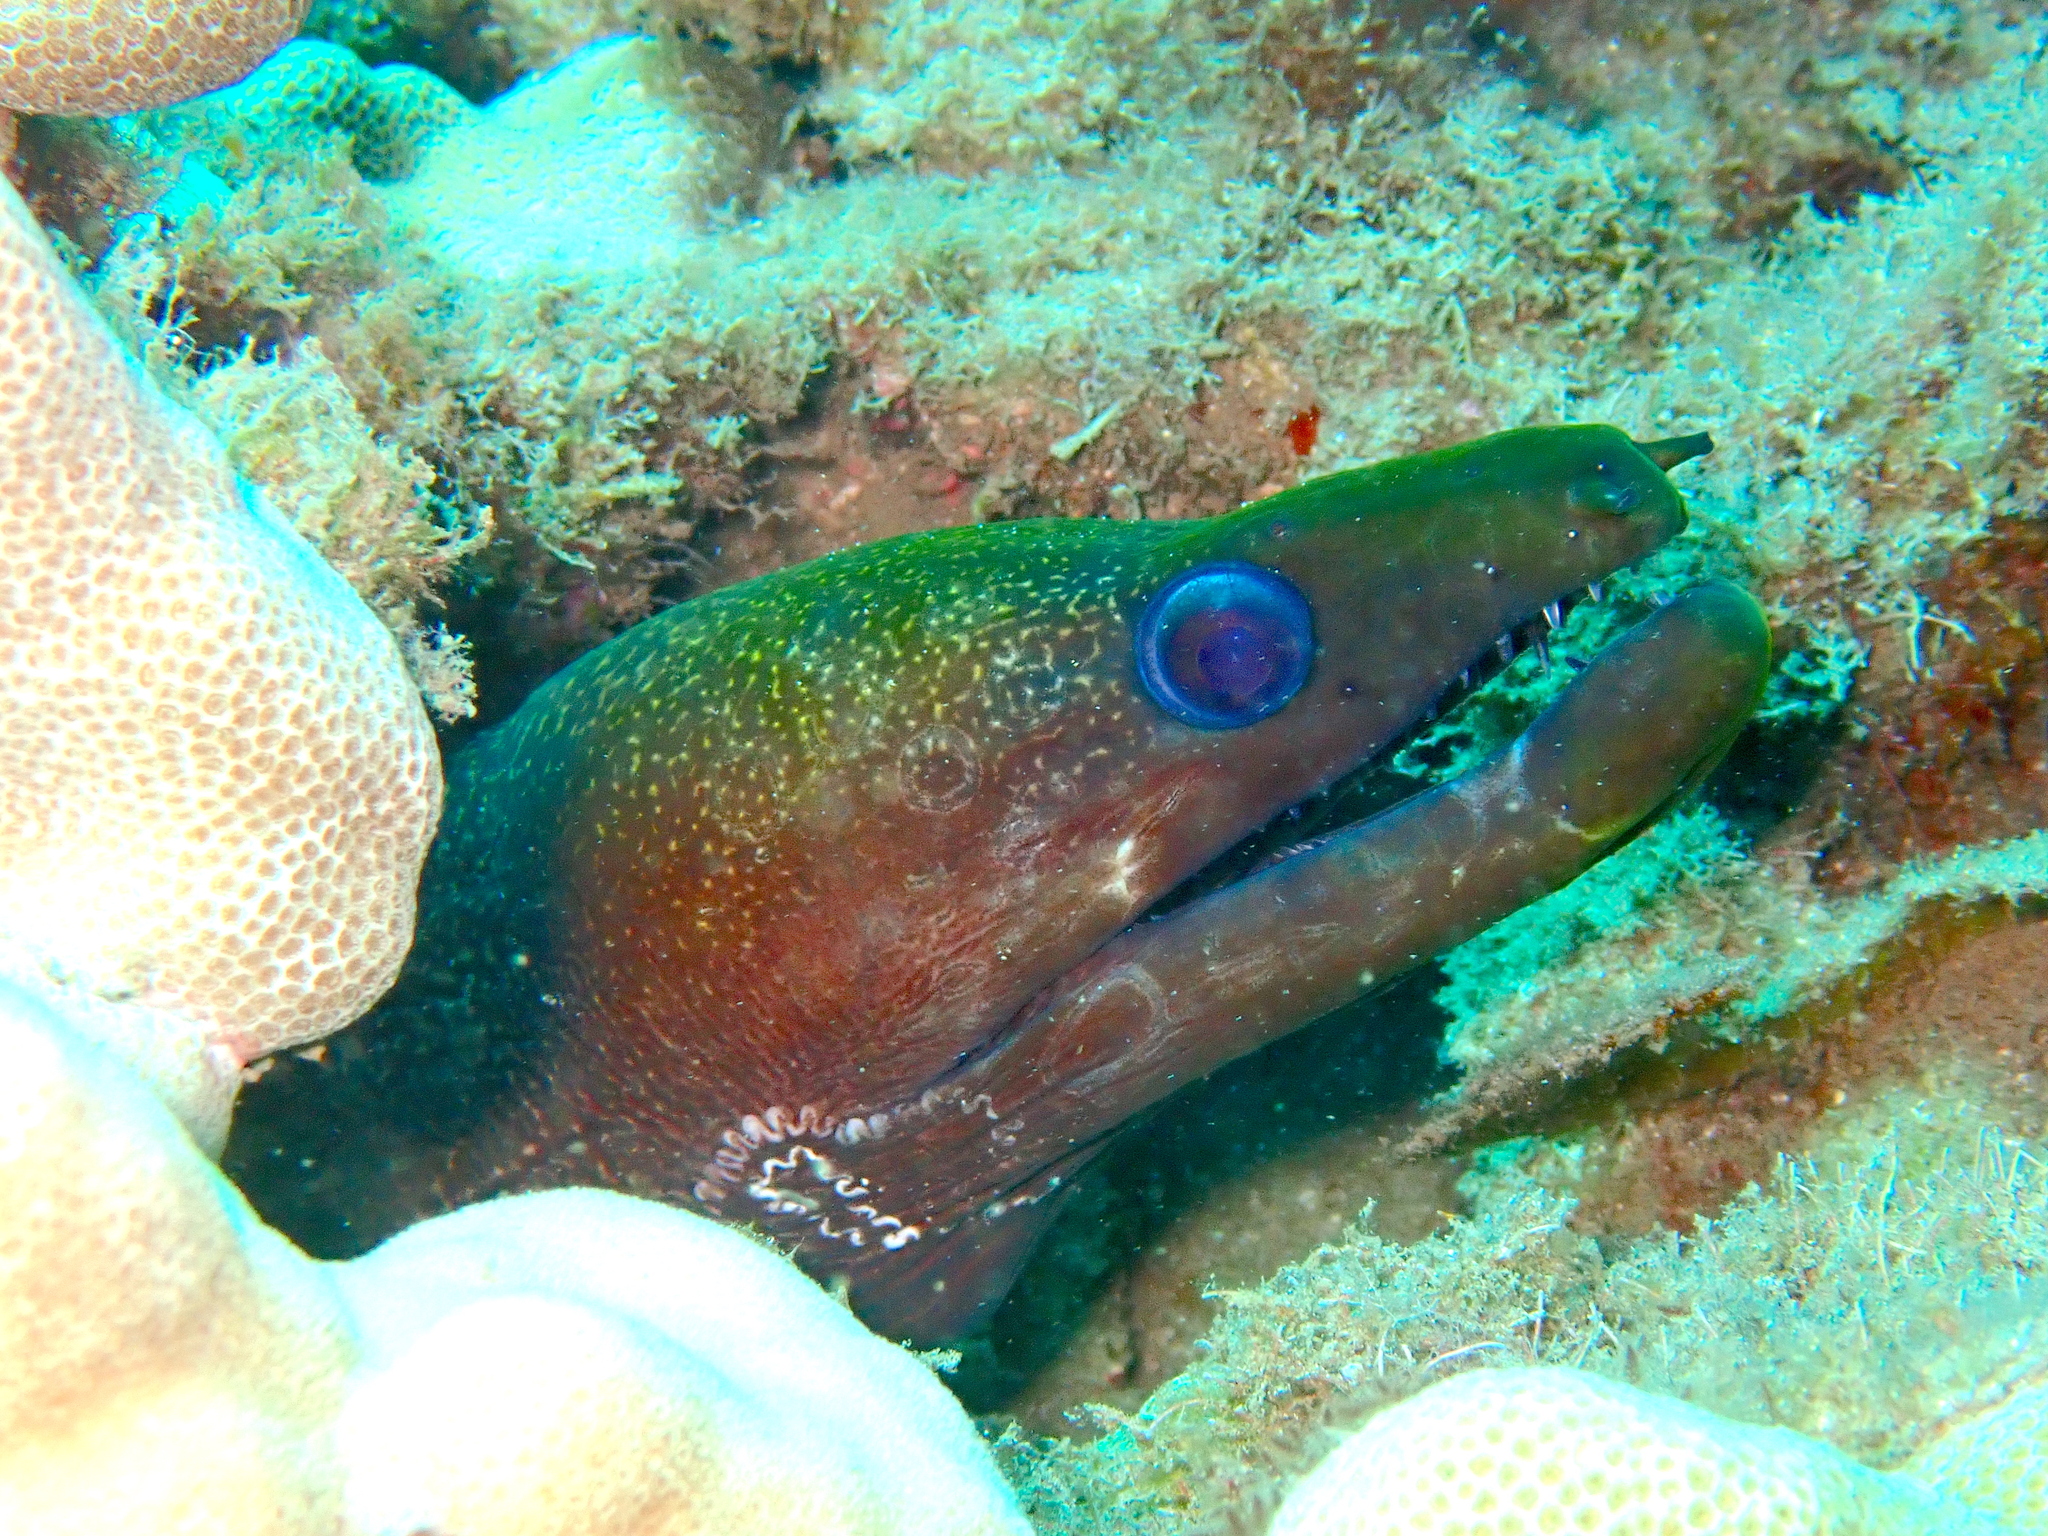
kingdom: Animalia
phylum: Chordata
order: Anguilliformes
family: Muraenidae
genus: Gymnothorax
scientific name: Gymnothorax undulatus
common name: Leopard moray
